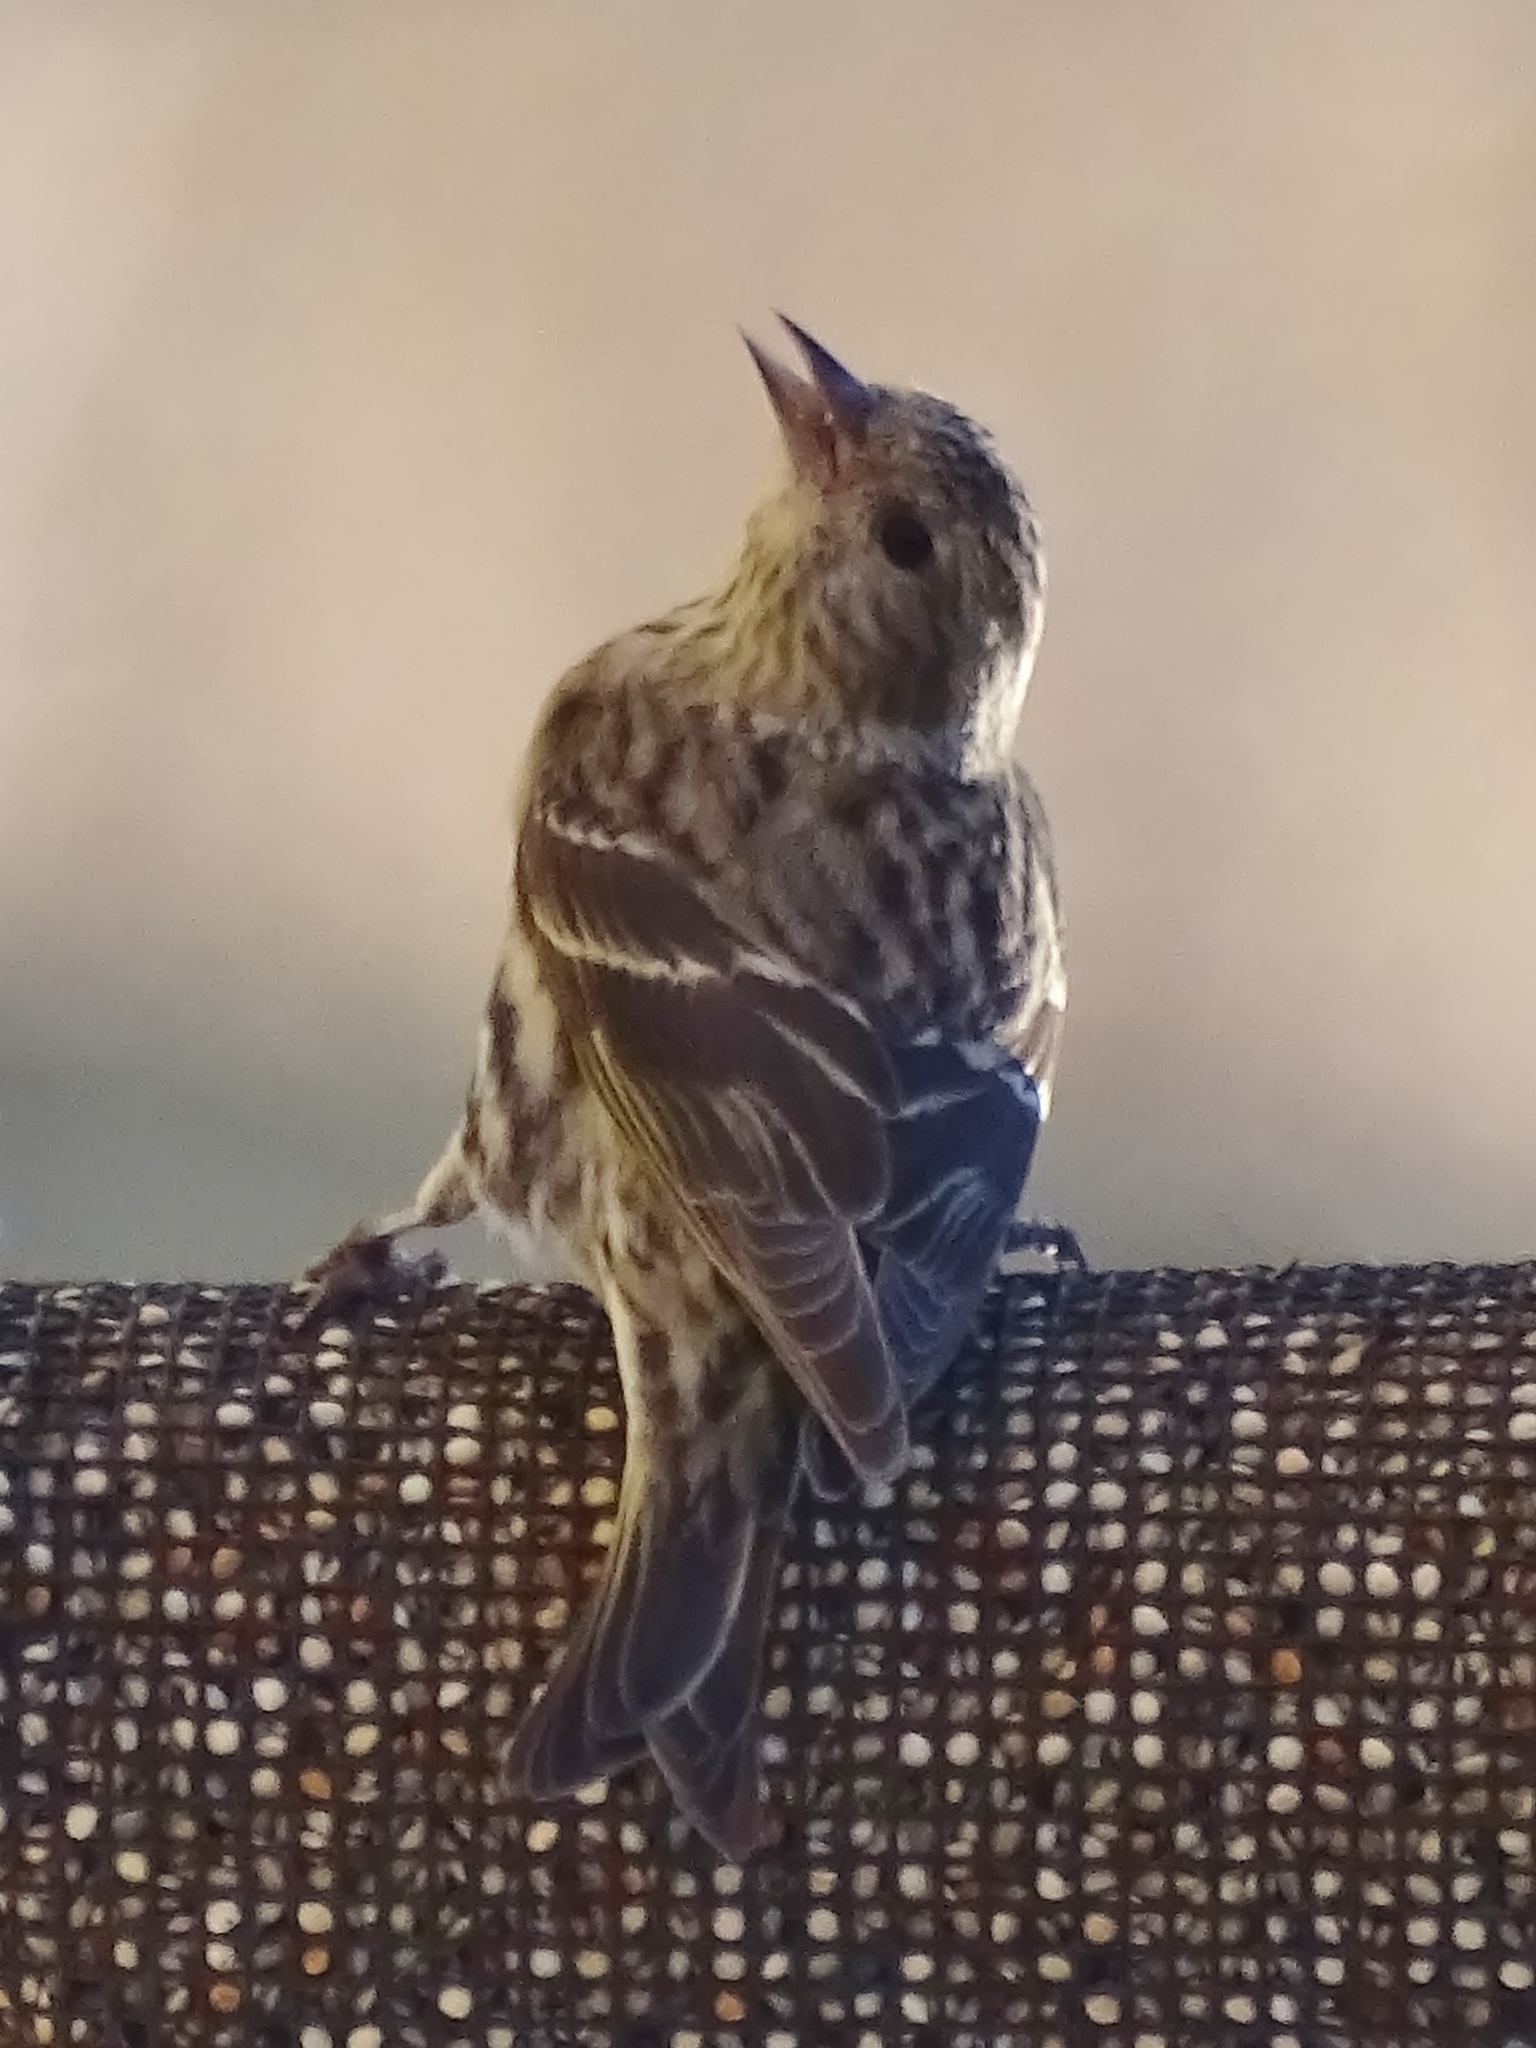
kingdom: Animalia
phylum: Chordata
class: Aves
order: Passeriformes
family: Fringillidae
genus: Spinus
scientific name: Spinus pinus
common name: Pine siskin
